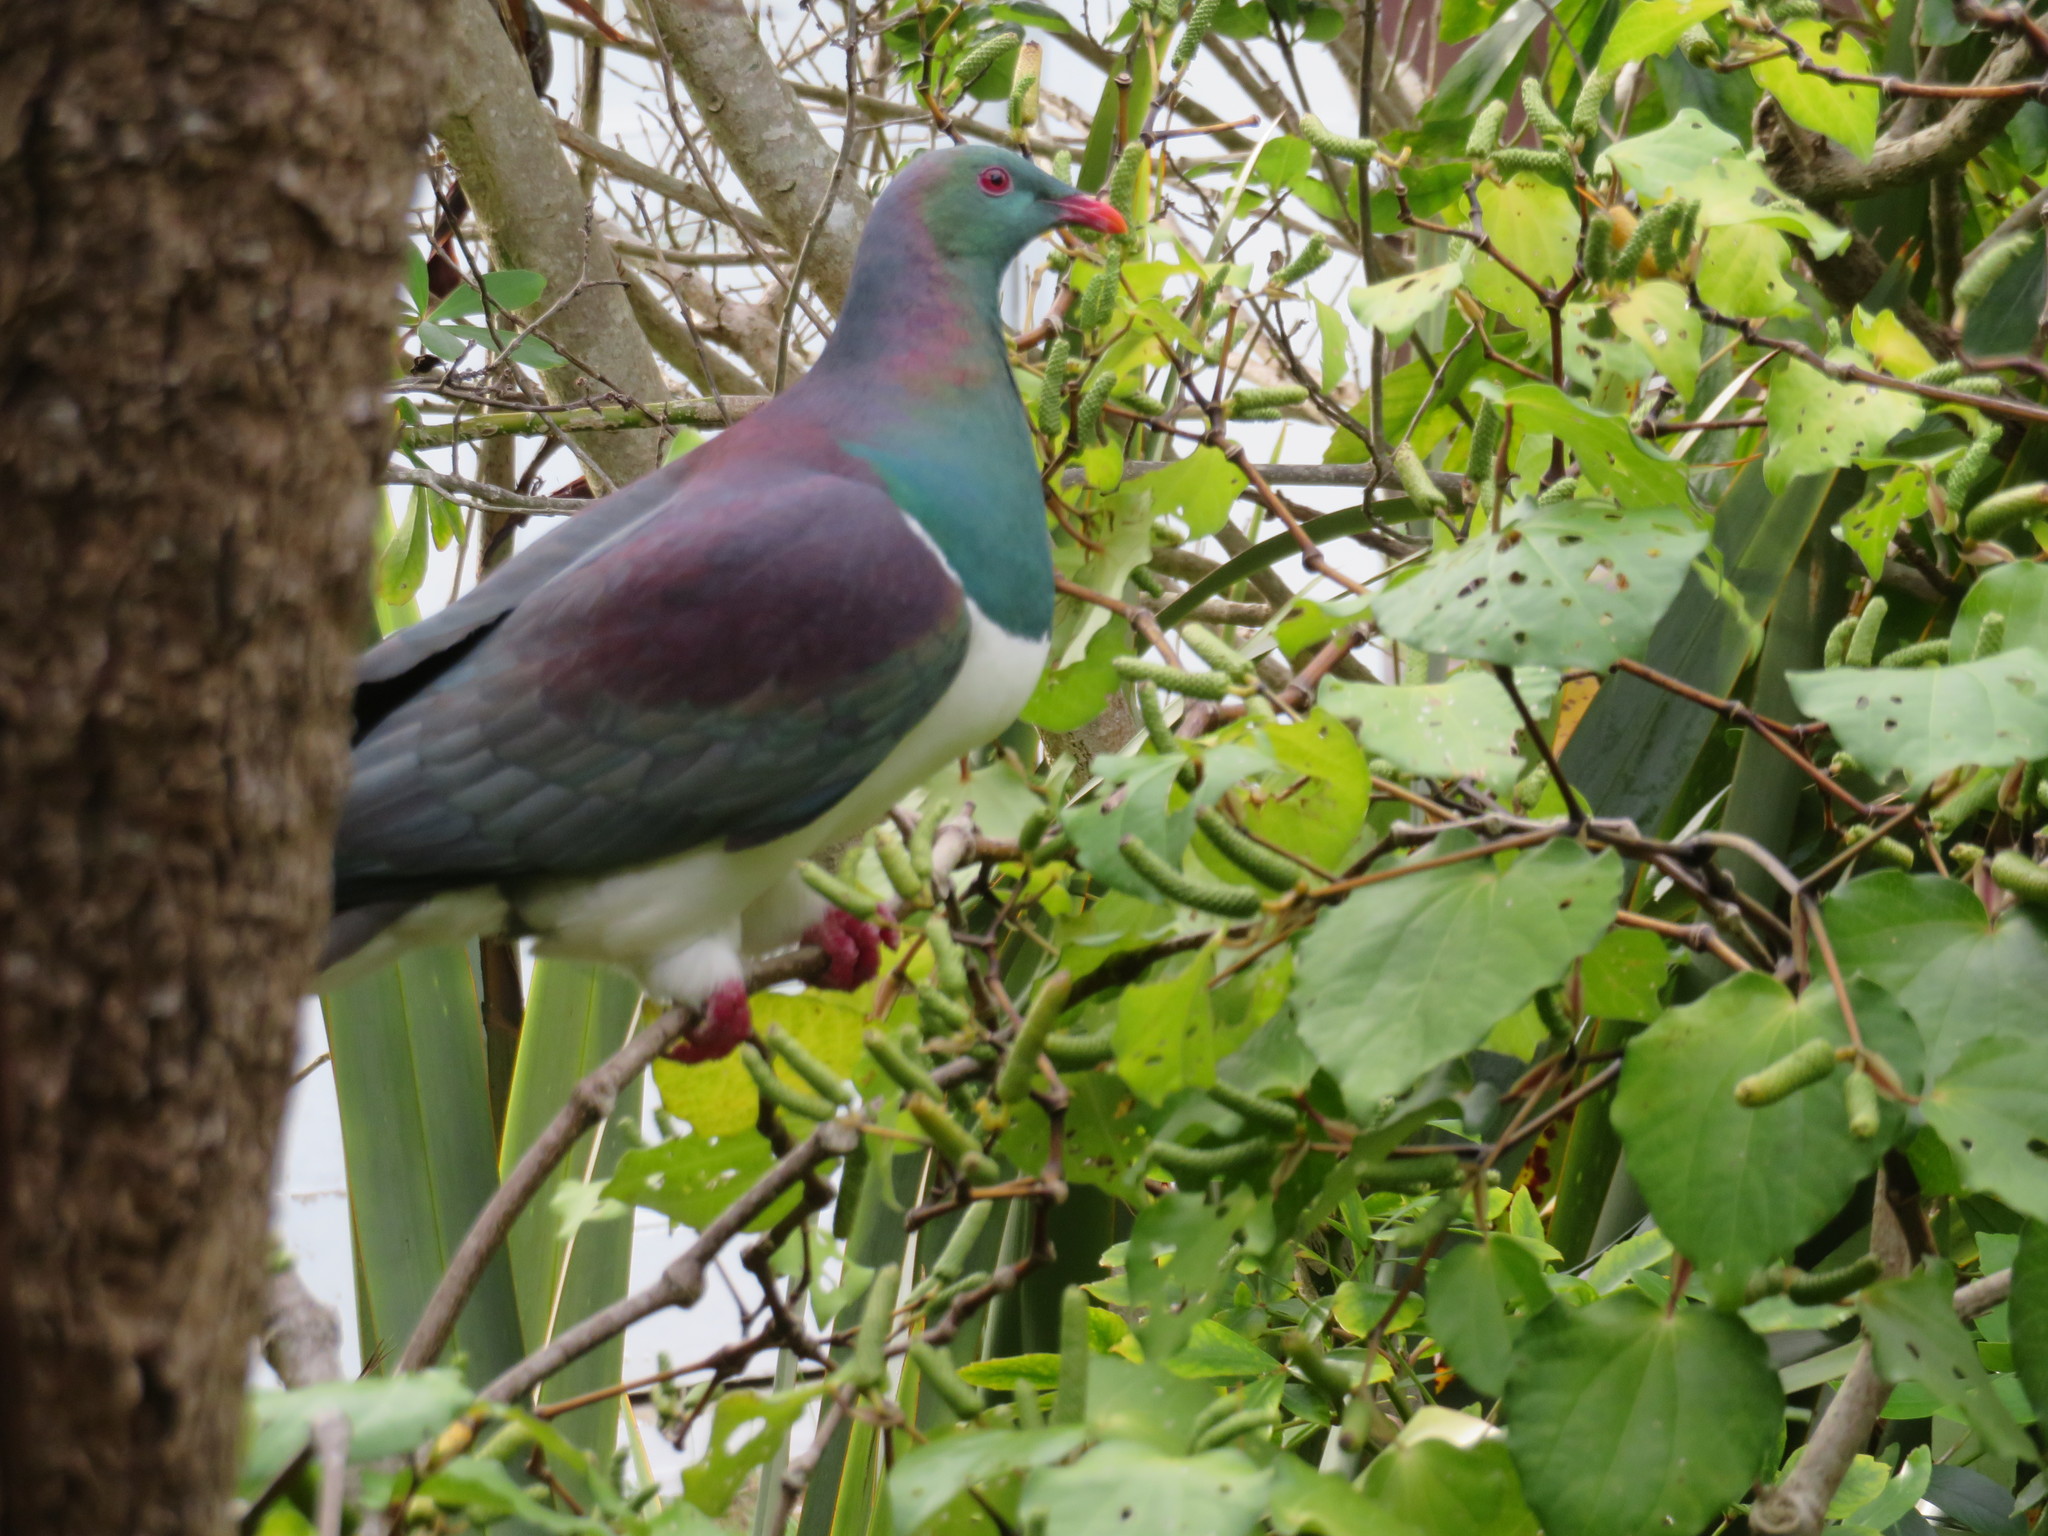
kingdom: Animalia
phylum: Chordata
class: Aves
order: Columbiformes
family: Columbidae
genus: Hemiphaga
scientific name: Hemiphaga novaeseelandiae
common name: New zealand pigeon
